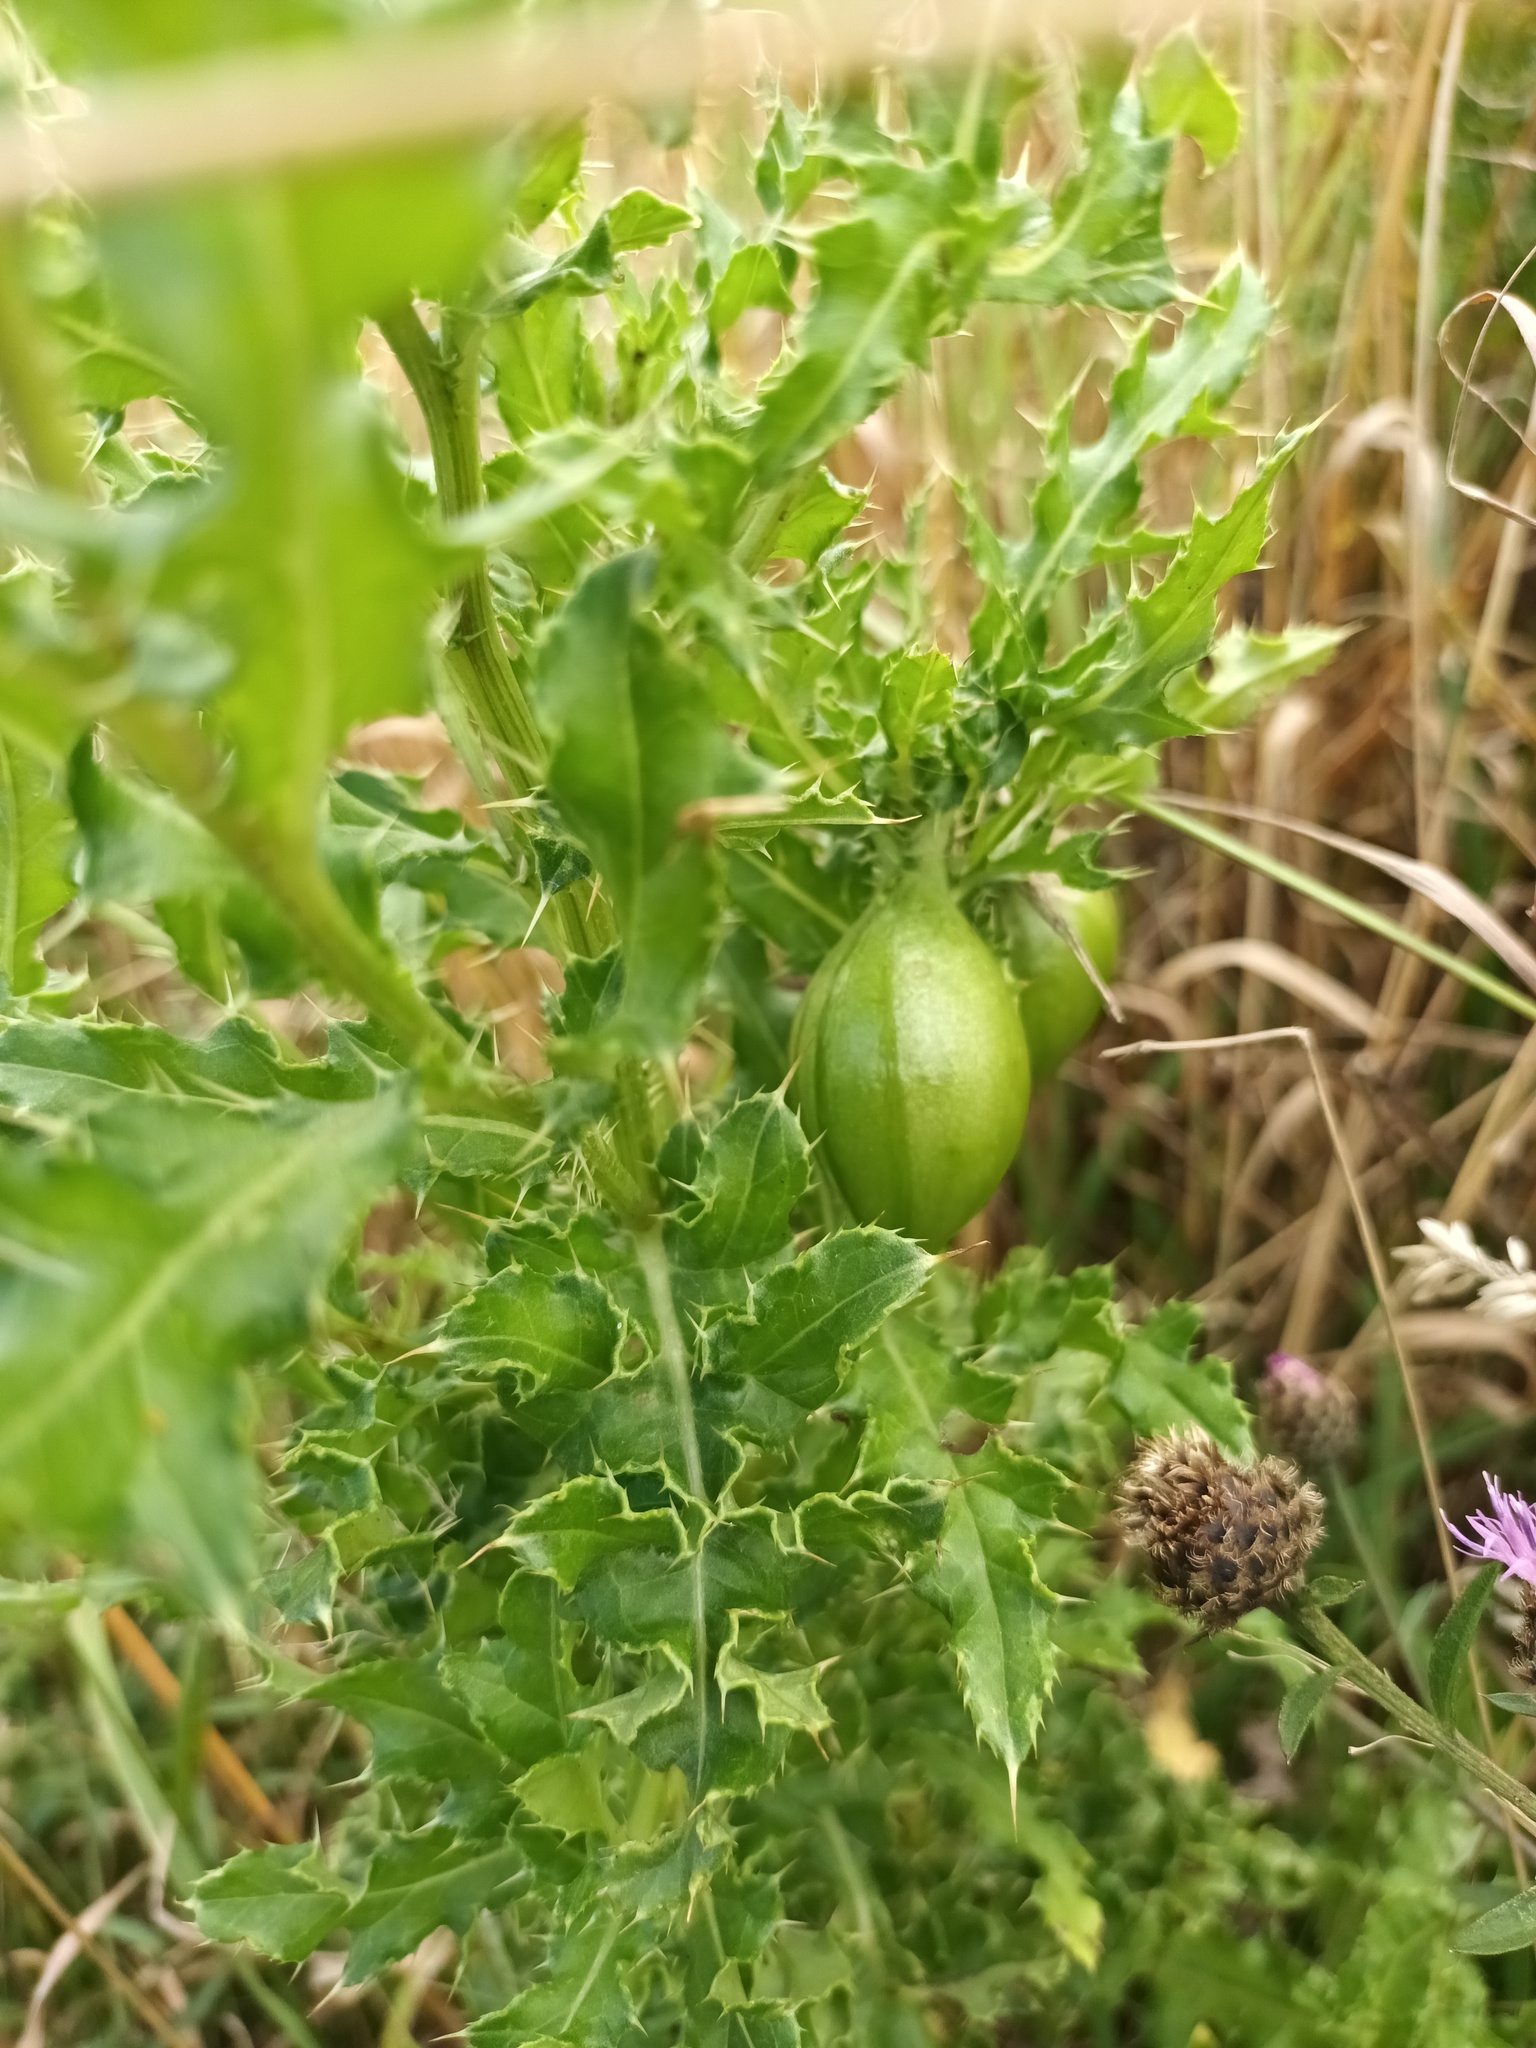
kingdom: Animalia
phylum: Arthropoda
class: Insecta
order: Diptera
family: Tephritidae
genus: Urophora
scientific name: Urophora cardui
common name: Fruit fly
